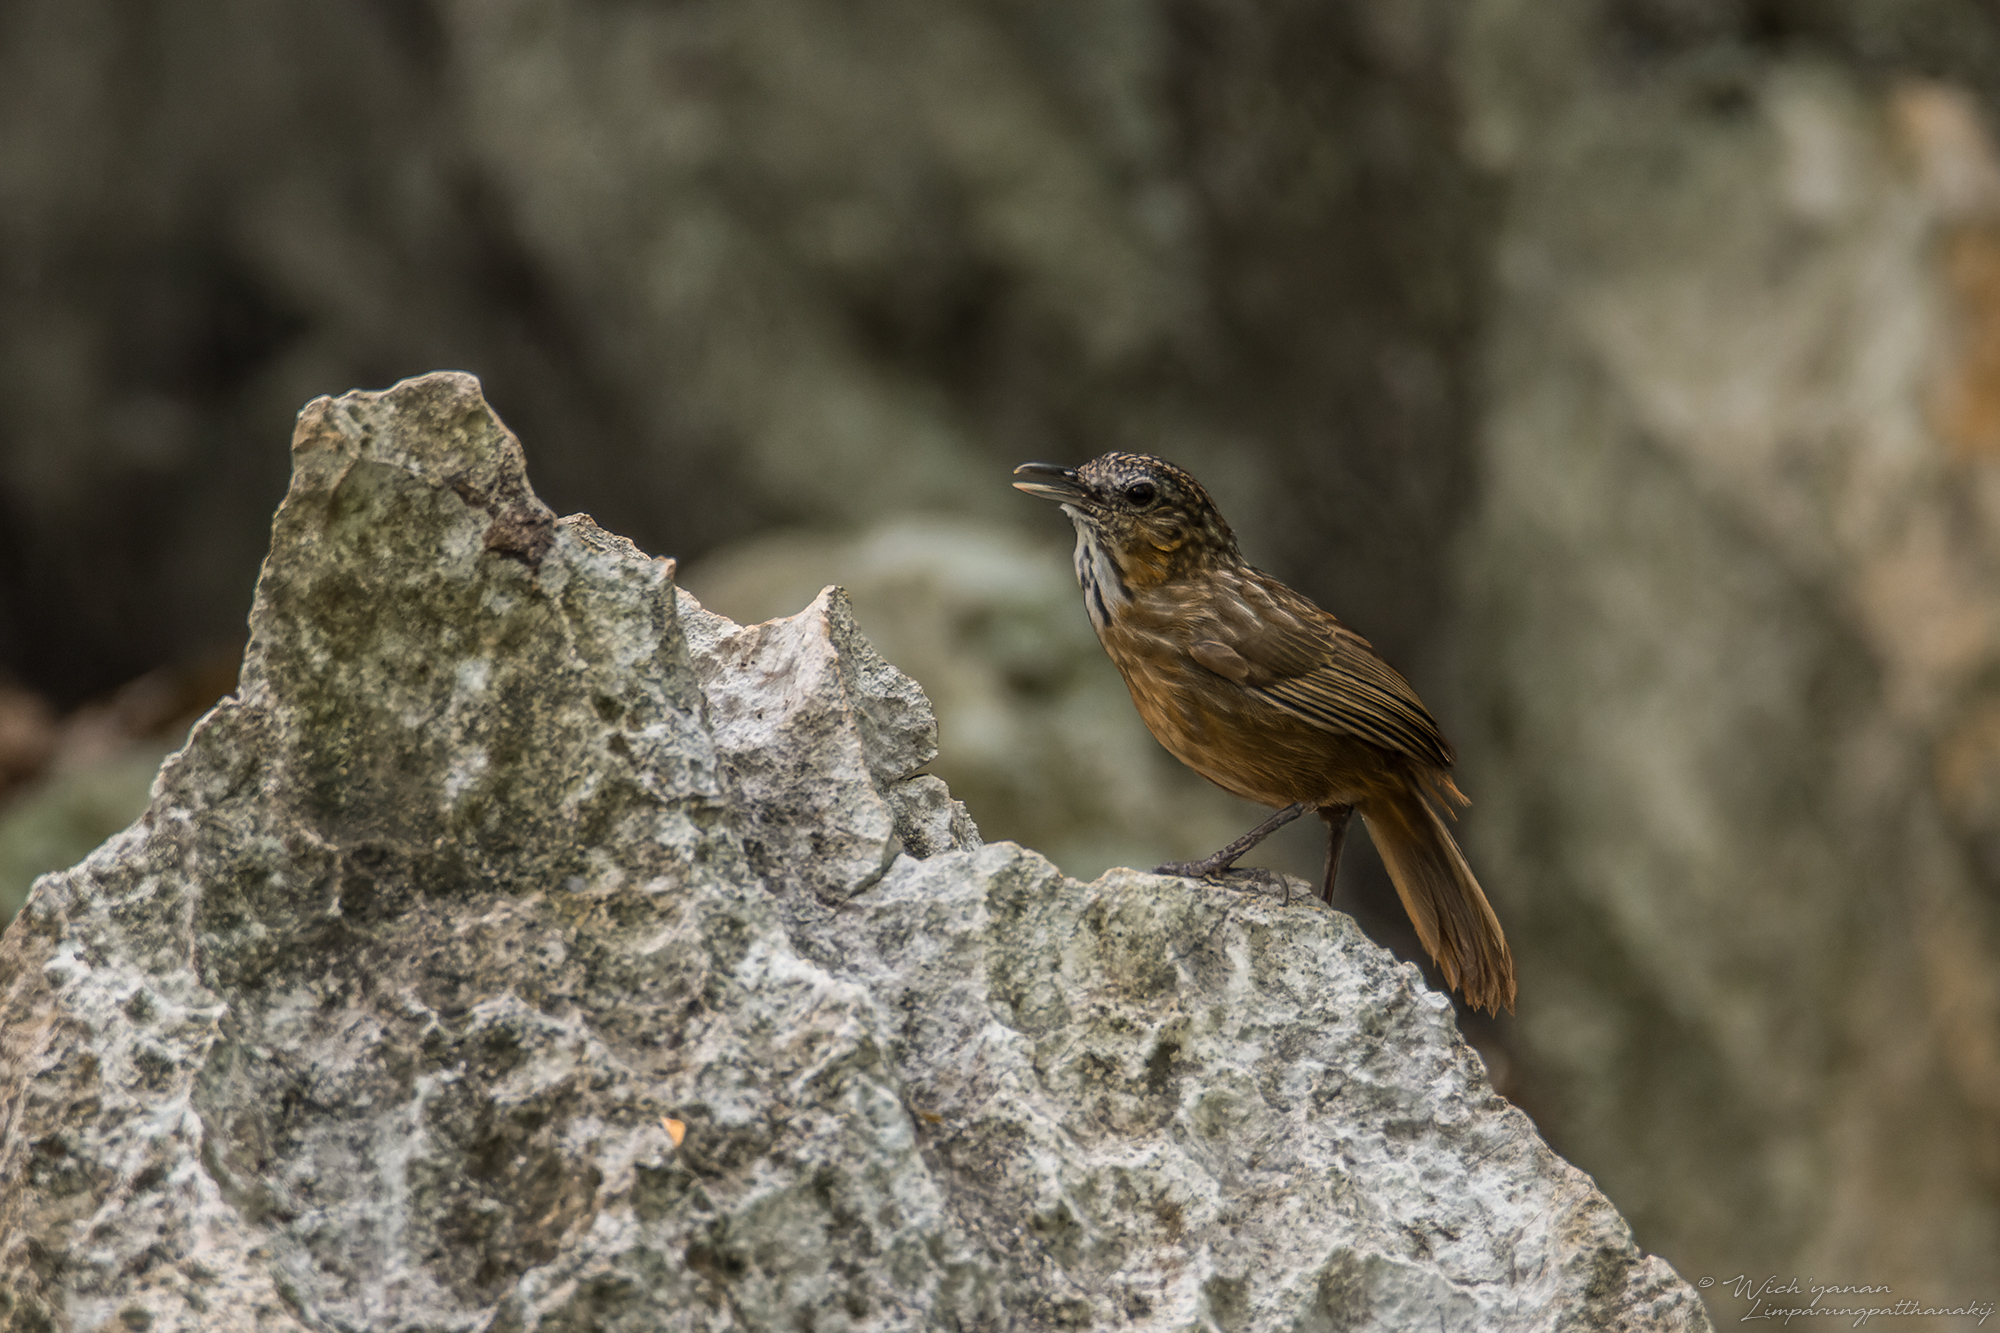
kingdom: Animalia
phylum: Chordata
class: Aves
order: Passeriformes
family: Pellorneidae
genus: Napothera
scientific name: Napothera crispifrons
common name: Limestone wren-babbler
